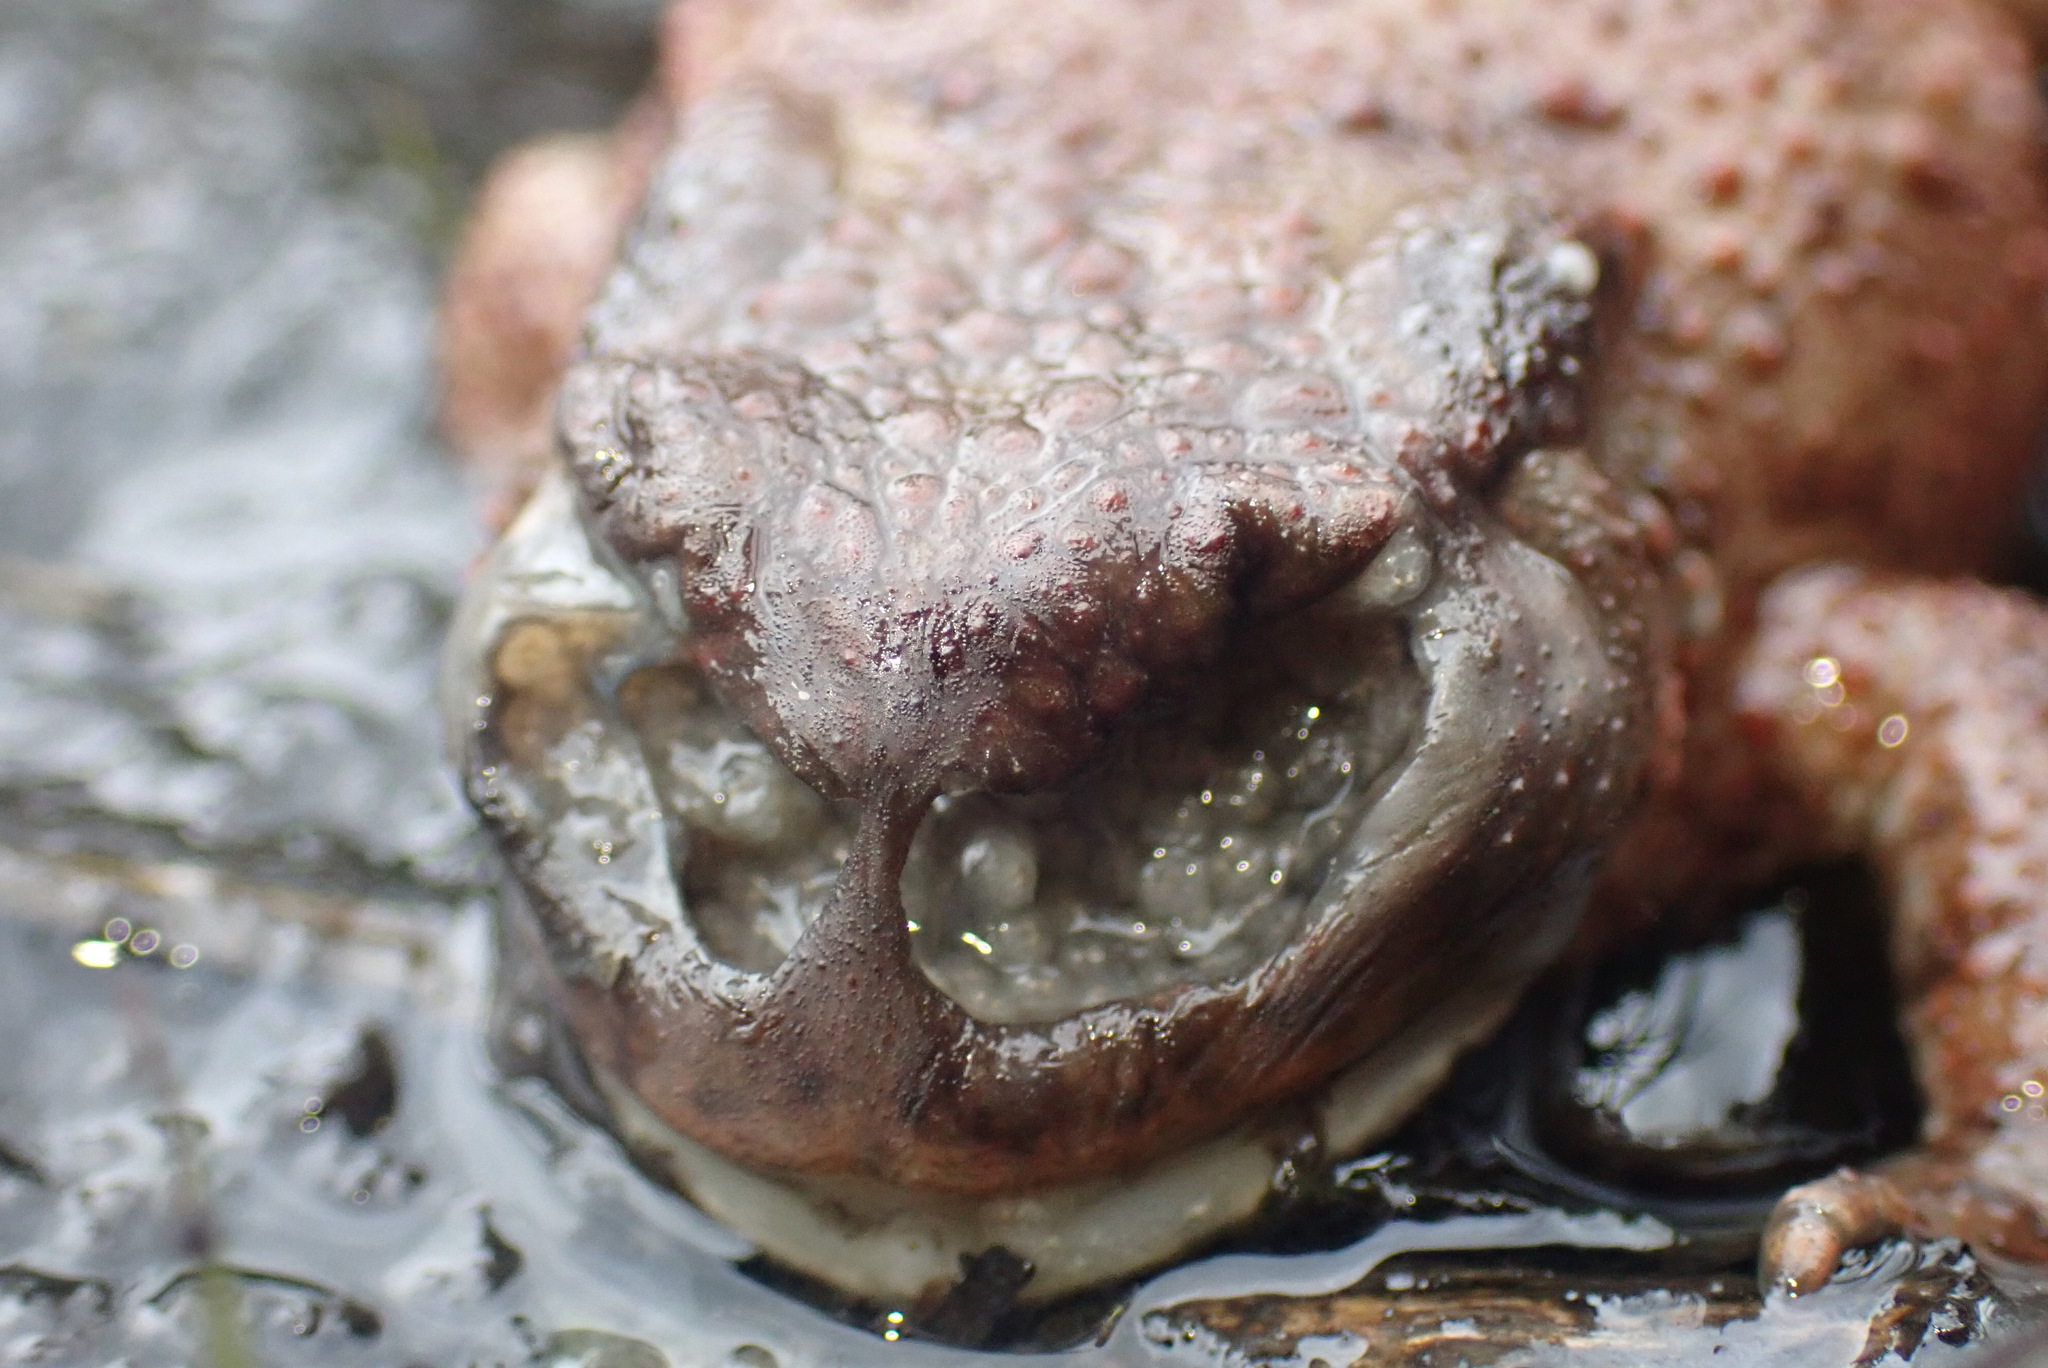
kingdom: Animalia
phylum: Arthropoda
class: Insecta
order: Diptera
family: Calliphoridae
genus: Lucilia
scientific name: Lucilia bufonivora
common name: Anuran parasite
